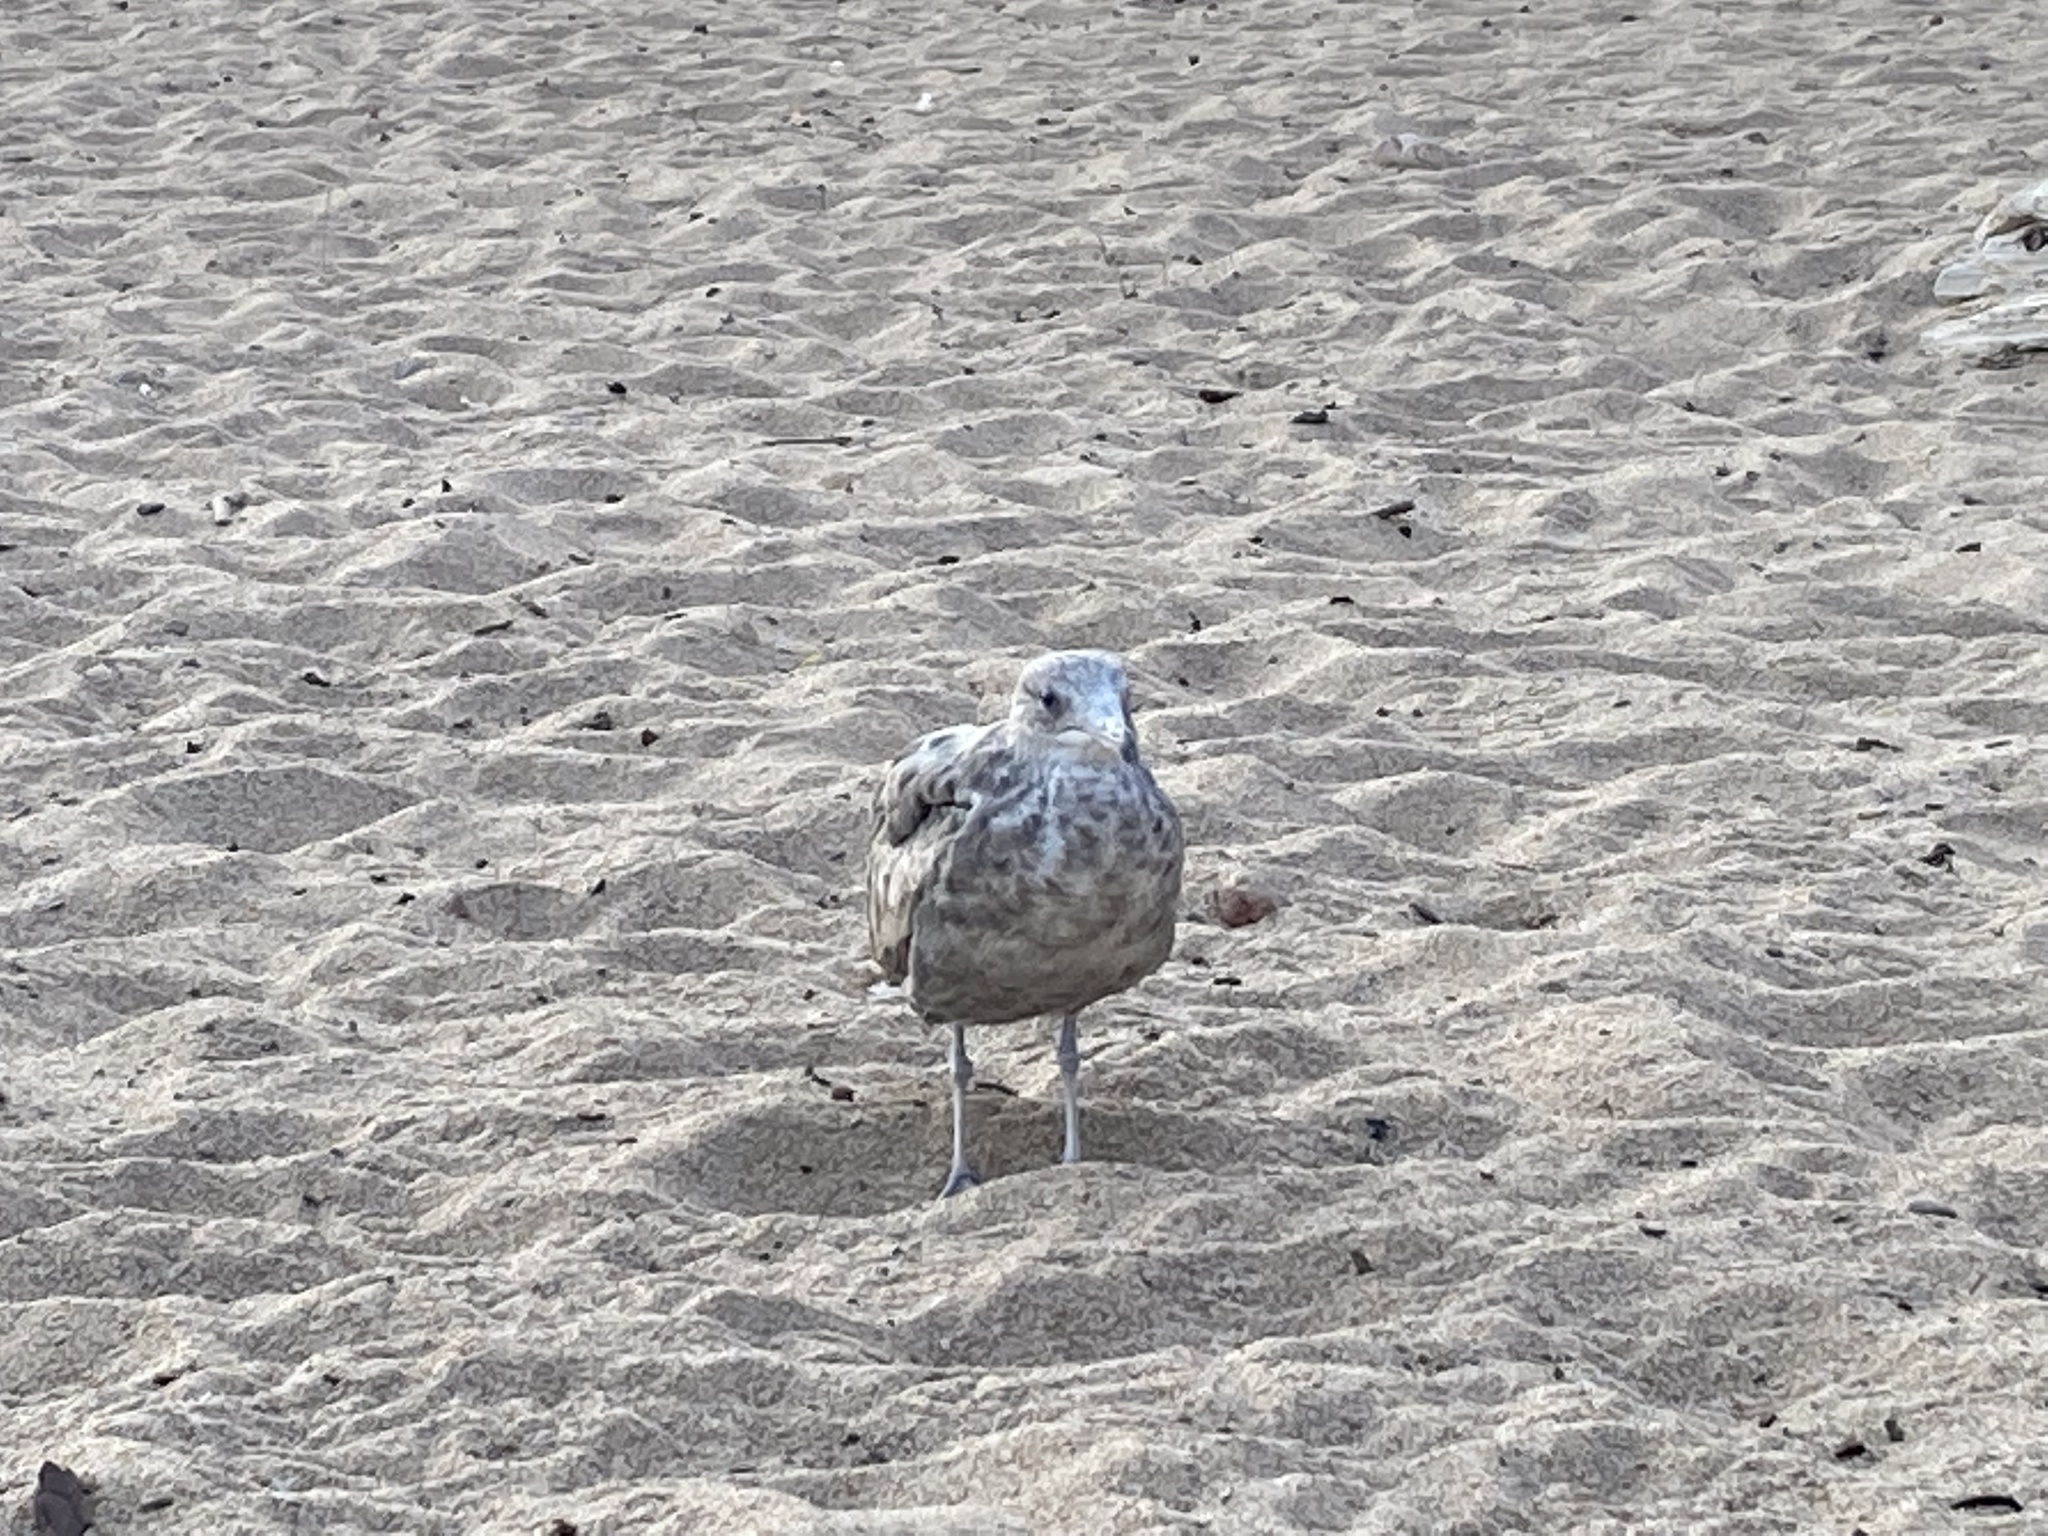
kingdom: Animalia
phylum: Chordata
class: Aves
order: Charadriiformes
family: Laridae
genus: Larus
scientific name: Larus californicus
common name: California gull
